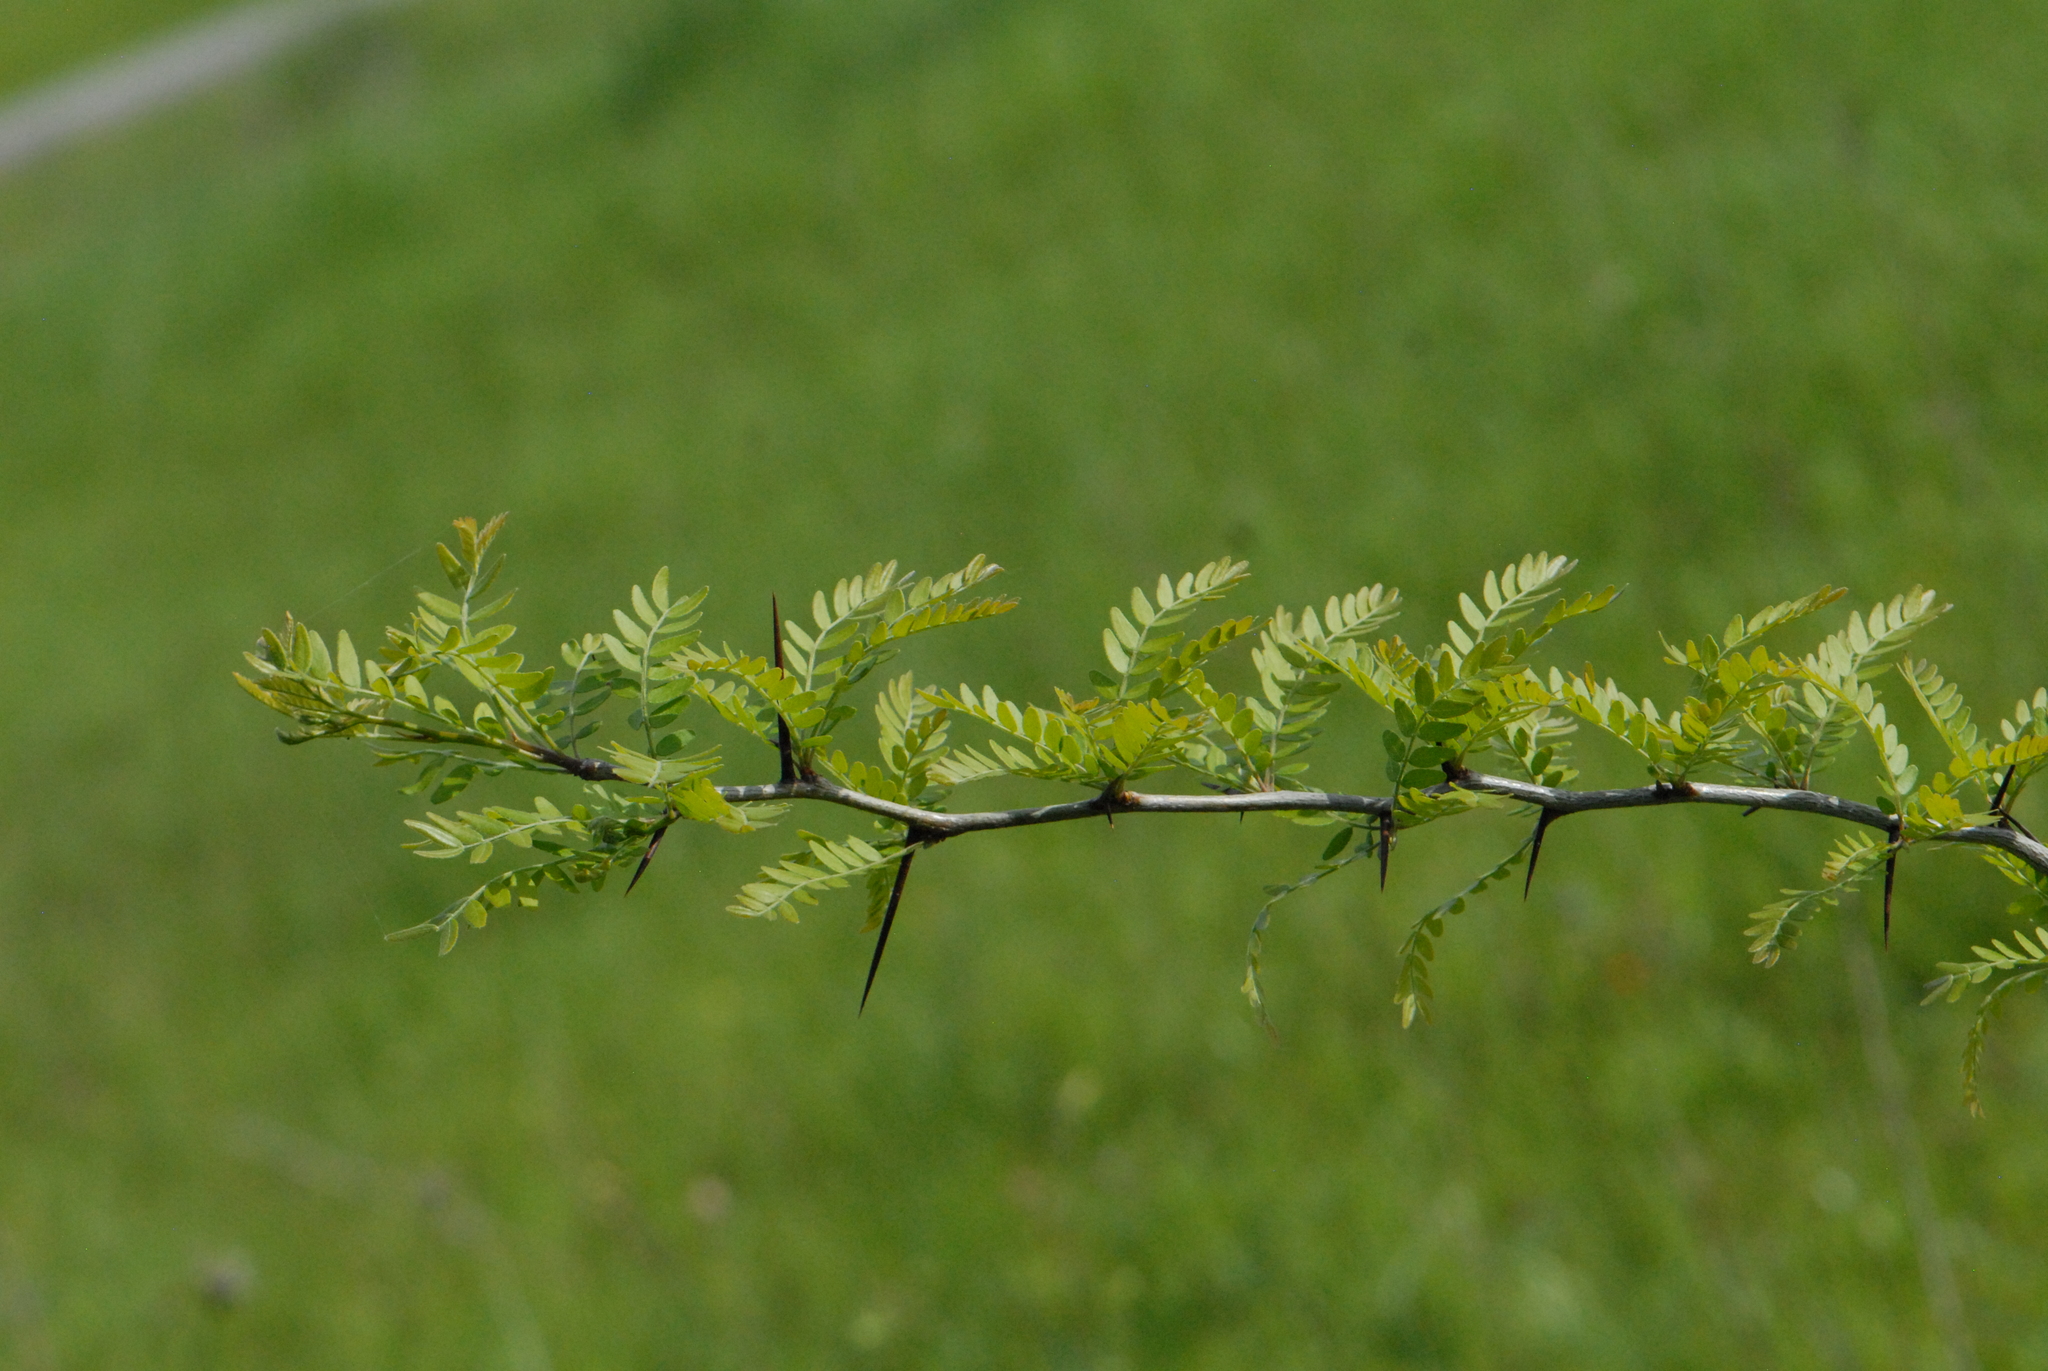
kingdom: Plantae
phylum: Tracheophyta
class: Magnoliopsida
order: Fabales
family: Fabaceae
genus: Gleditsia
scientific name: Gleditsia triacanthos
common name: Common honeylocust
